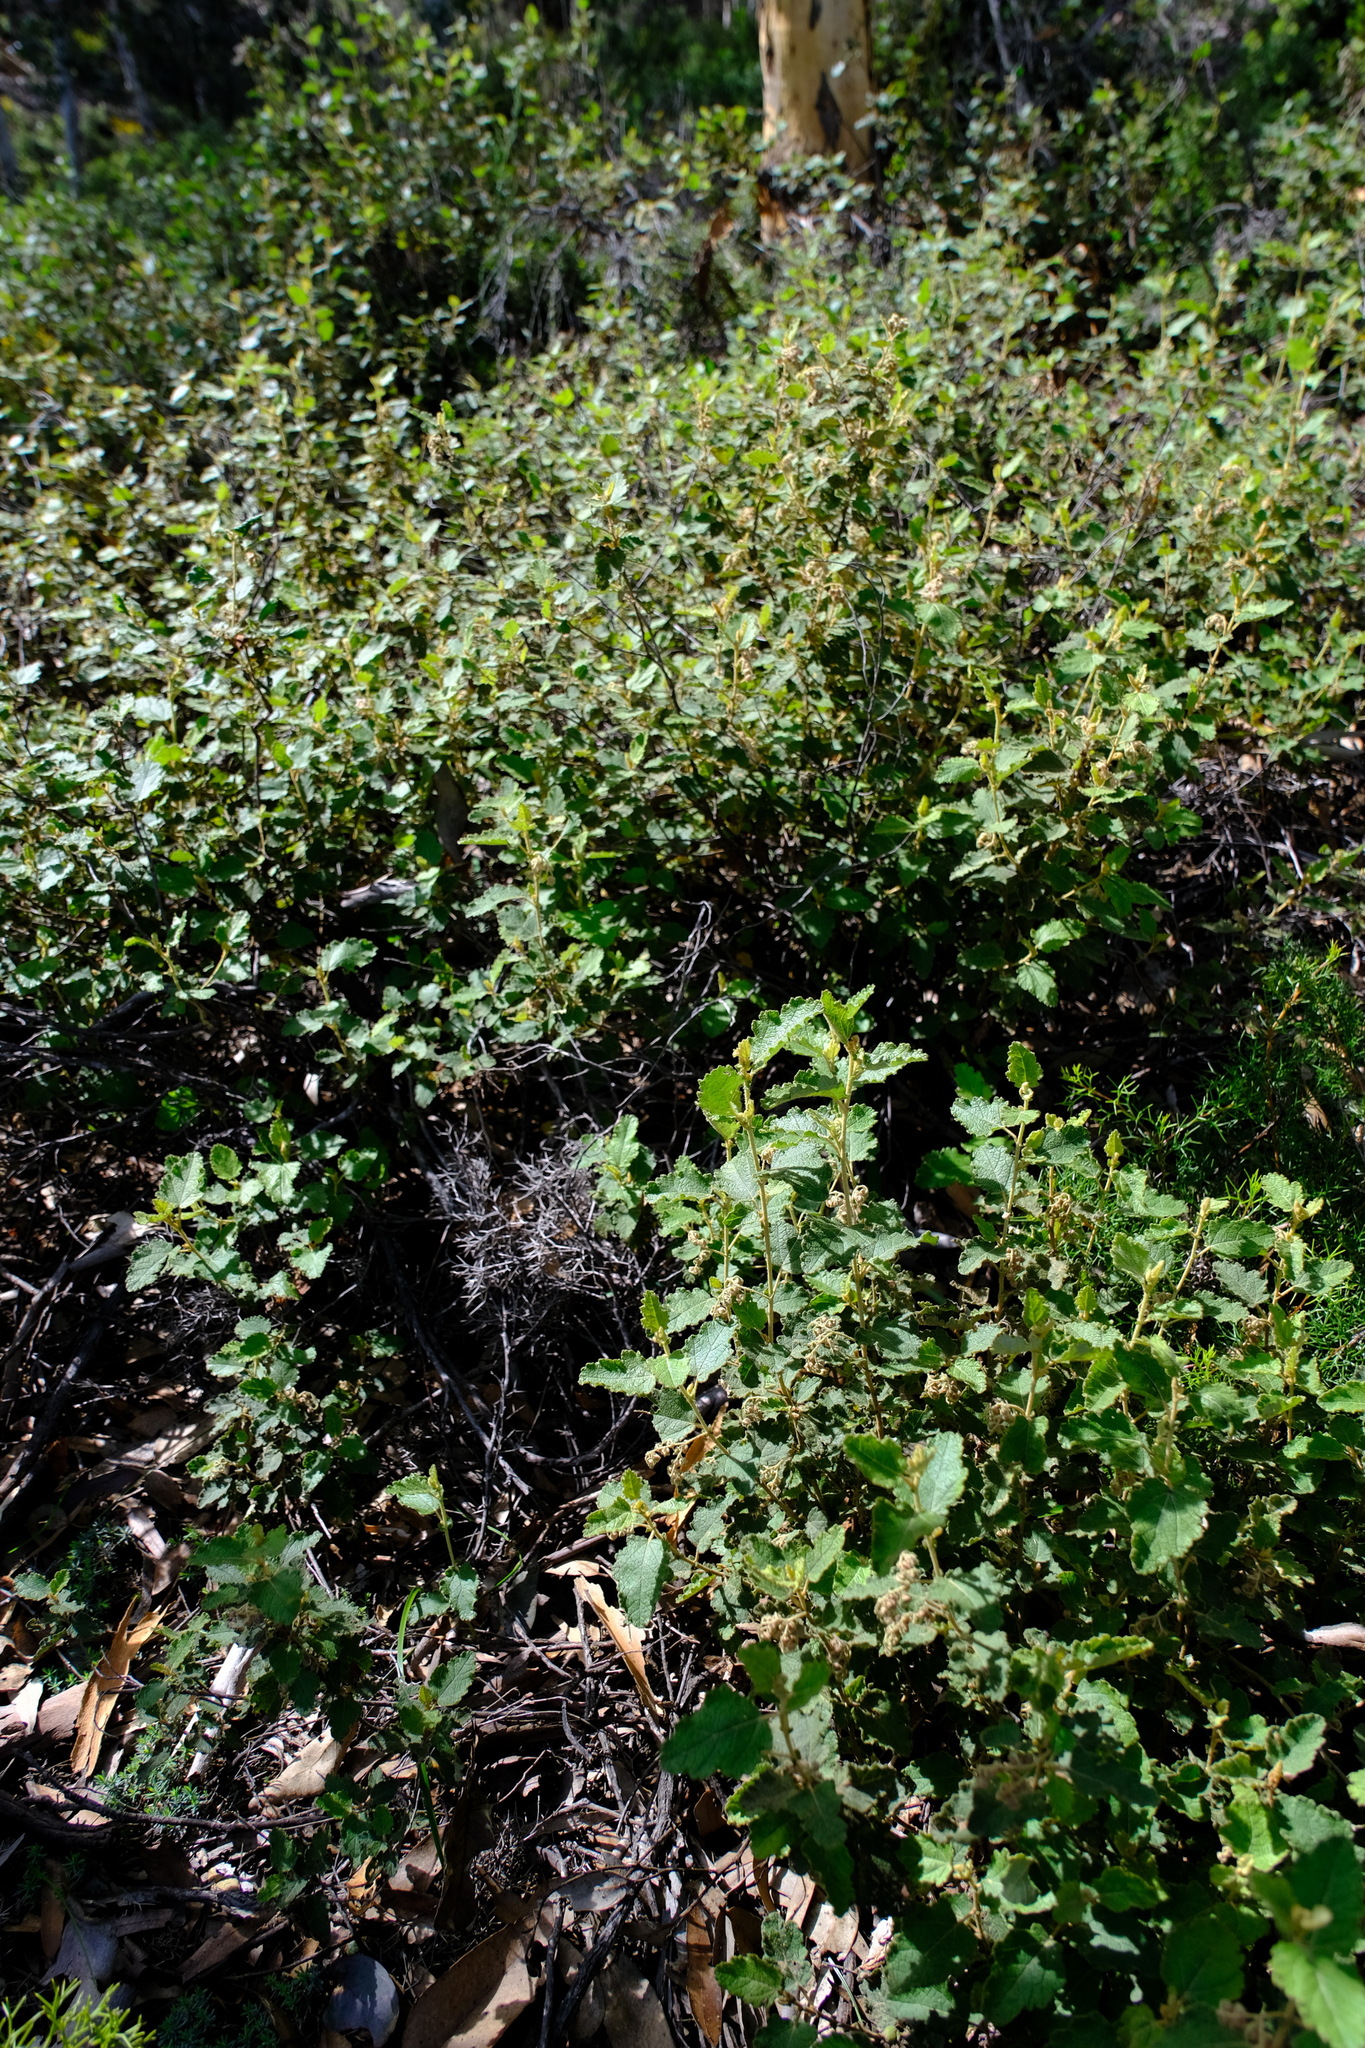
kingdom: Plantae
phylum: Tracheophyta
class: Magnoliopsida
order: Malvales
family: Malvaceae
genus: Thomasia
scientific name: Thomasia foliosa
